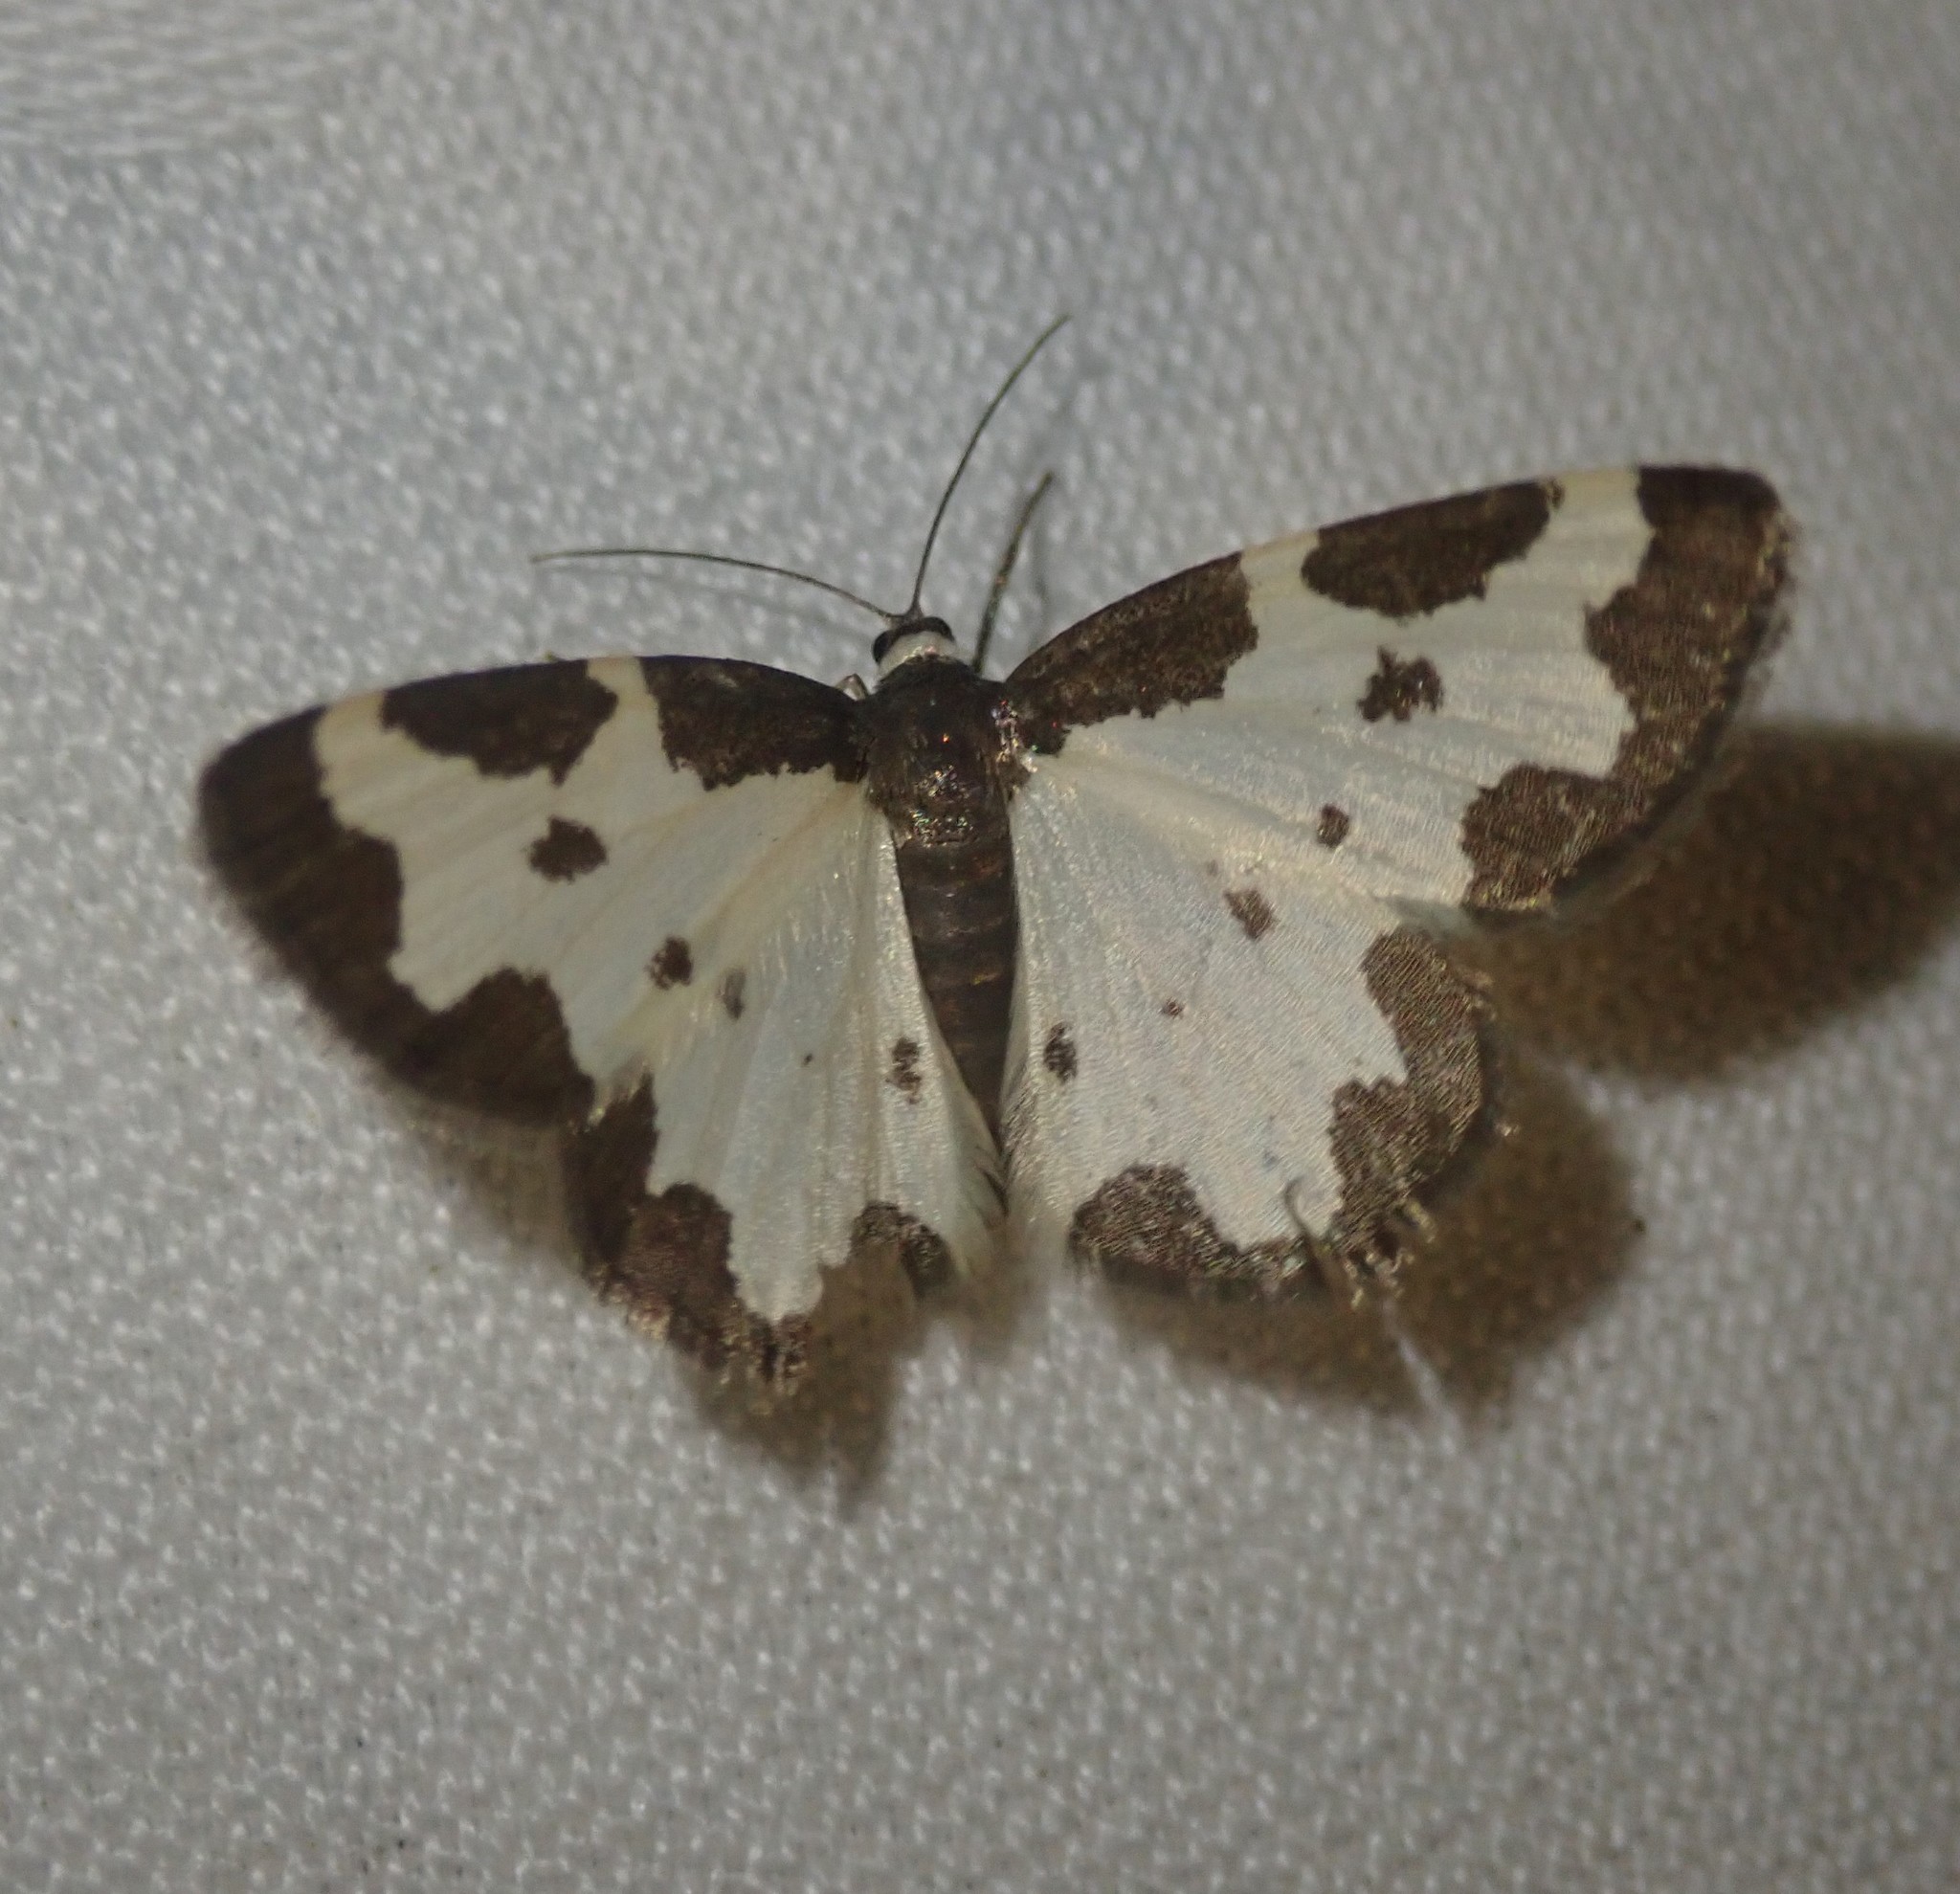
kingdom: Animalia
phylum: Arthropoda
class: Insecta
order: Lepidoptera
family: Geometridae
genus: Lomaspilis
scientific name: Lomaspilis marginata
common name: Clouded border
